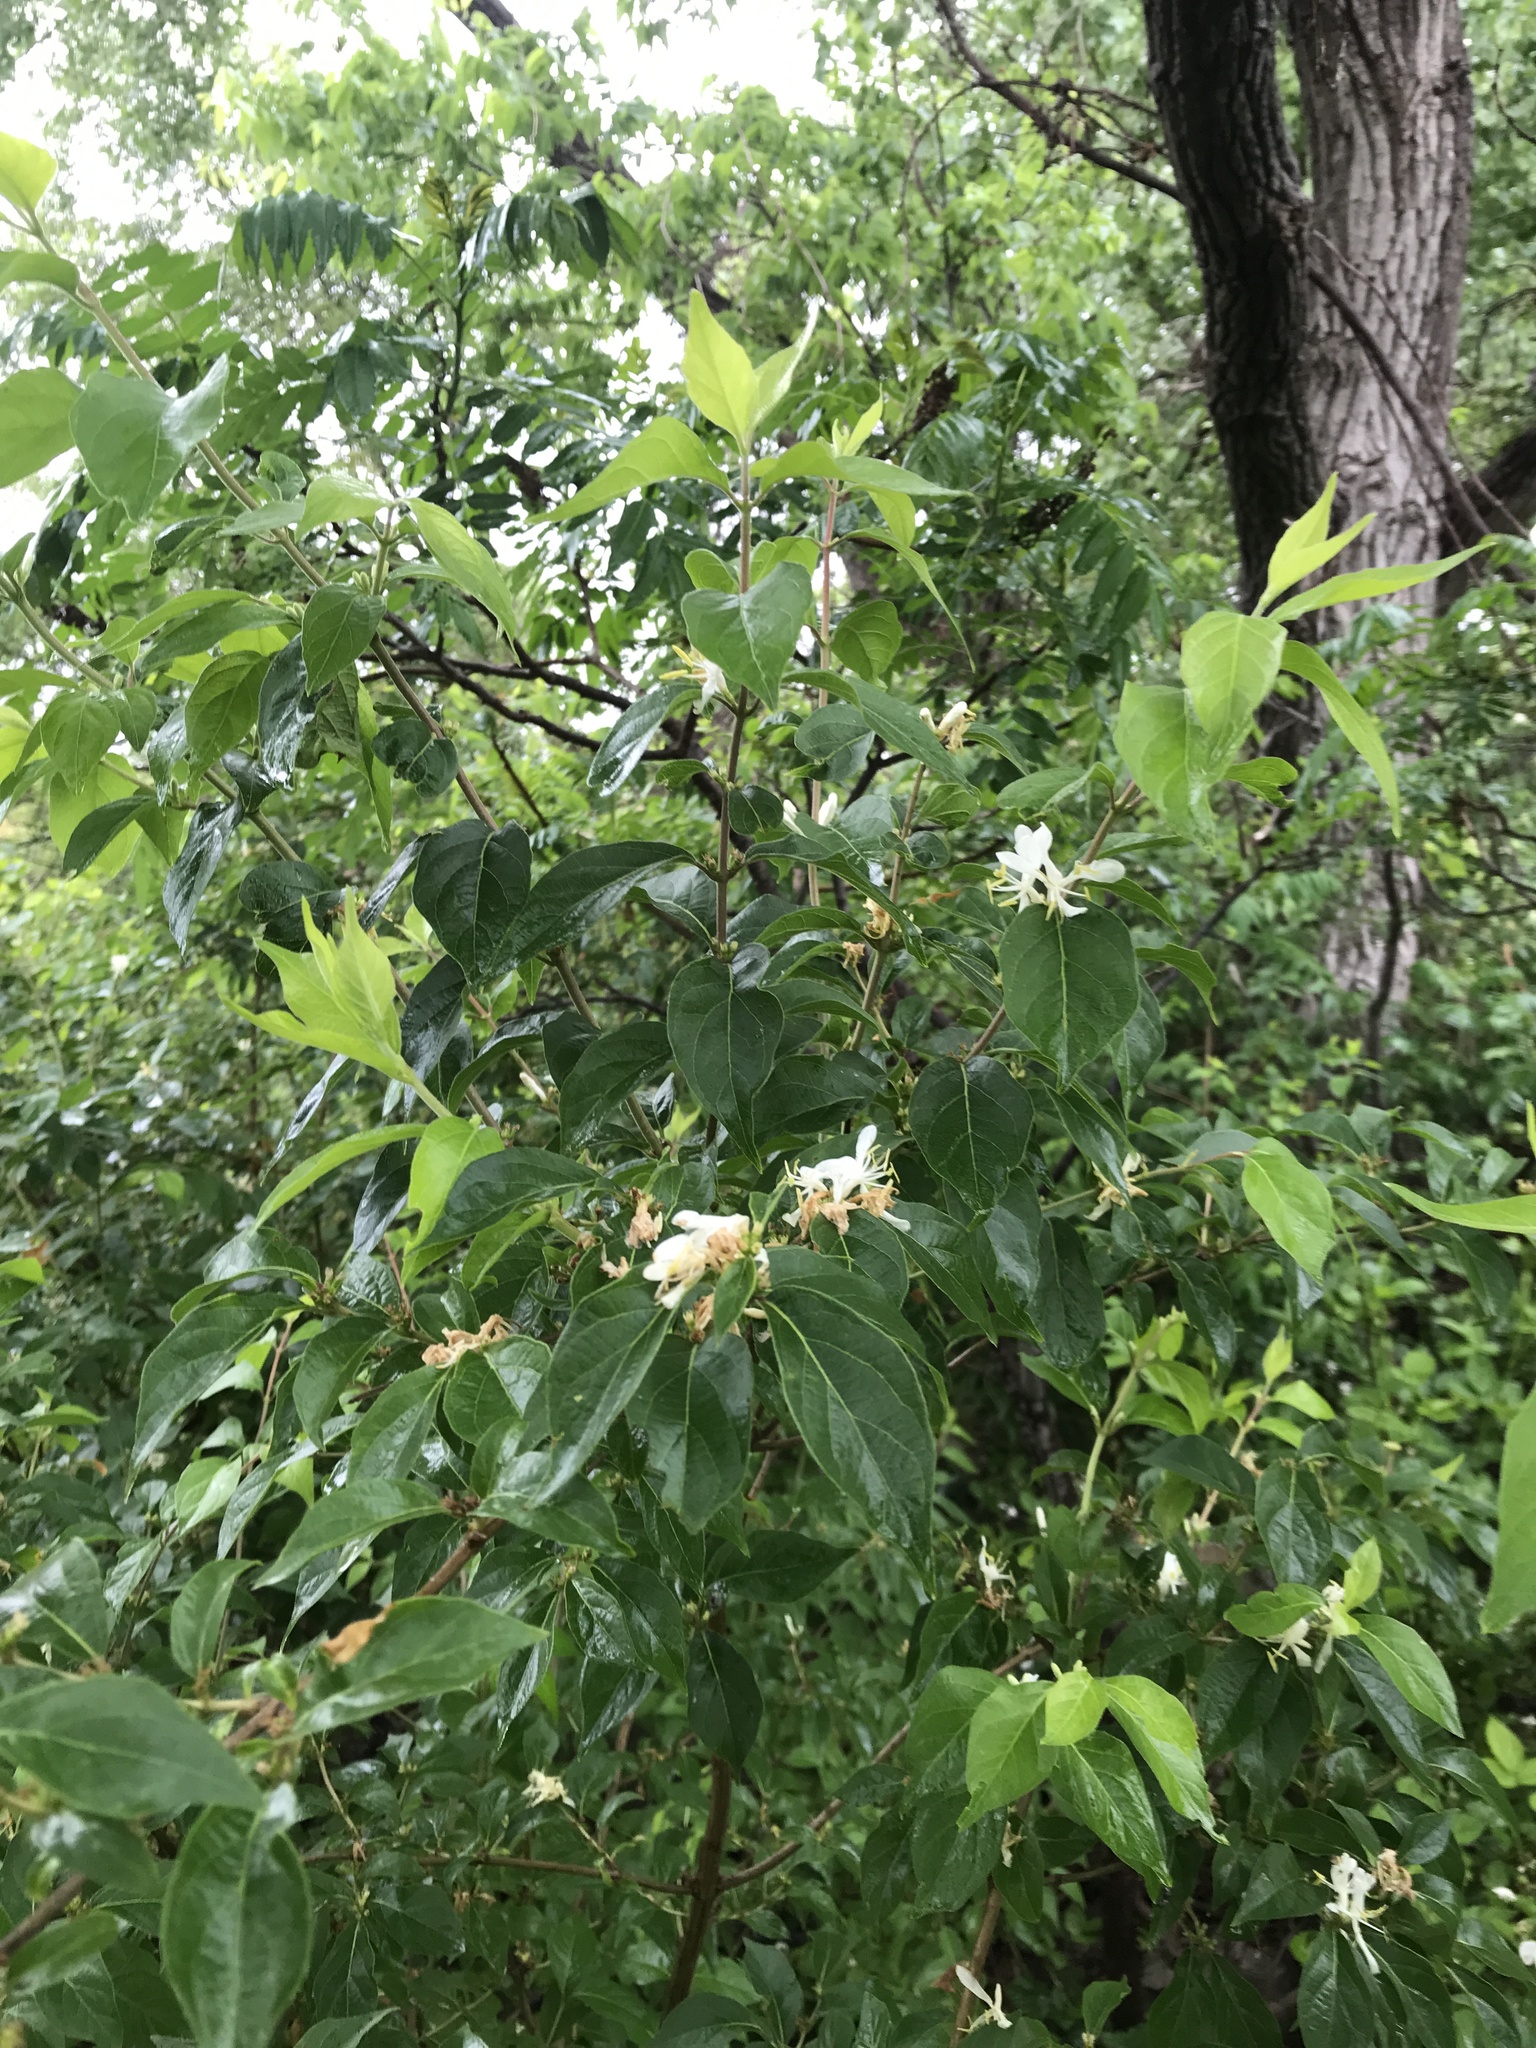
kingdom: Plantae
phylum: Tracheophyta
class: Magnoliopsida
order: Dipsacales
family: Caprifoliaceae
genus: Lonicera
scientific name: Lonicera maackii
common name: Amur honeysuckle
